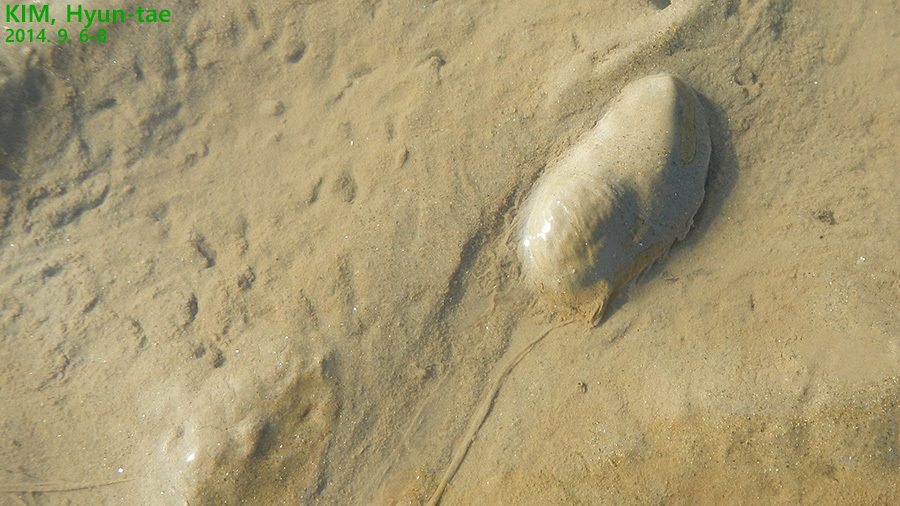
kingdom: Animalia
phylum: Mollusca
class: Gastropoda
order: Cephalaspidea
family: Haminoeidae
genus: Bullacta
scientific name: Bullacta caurina
